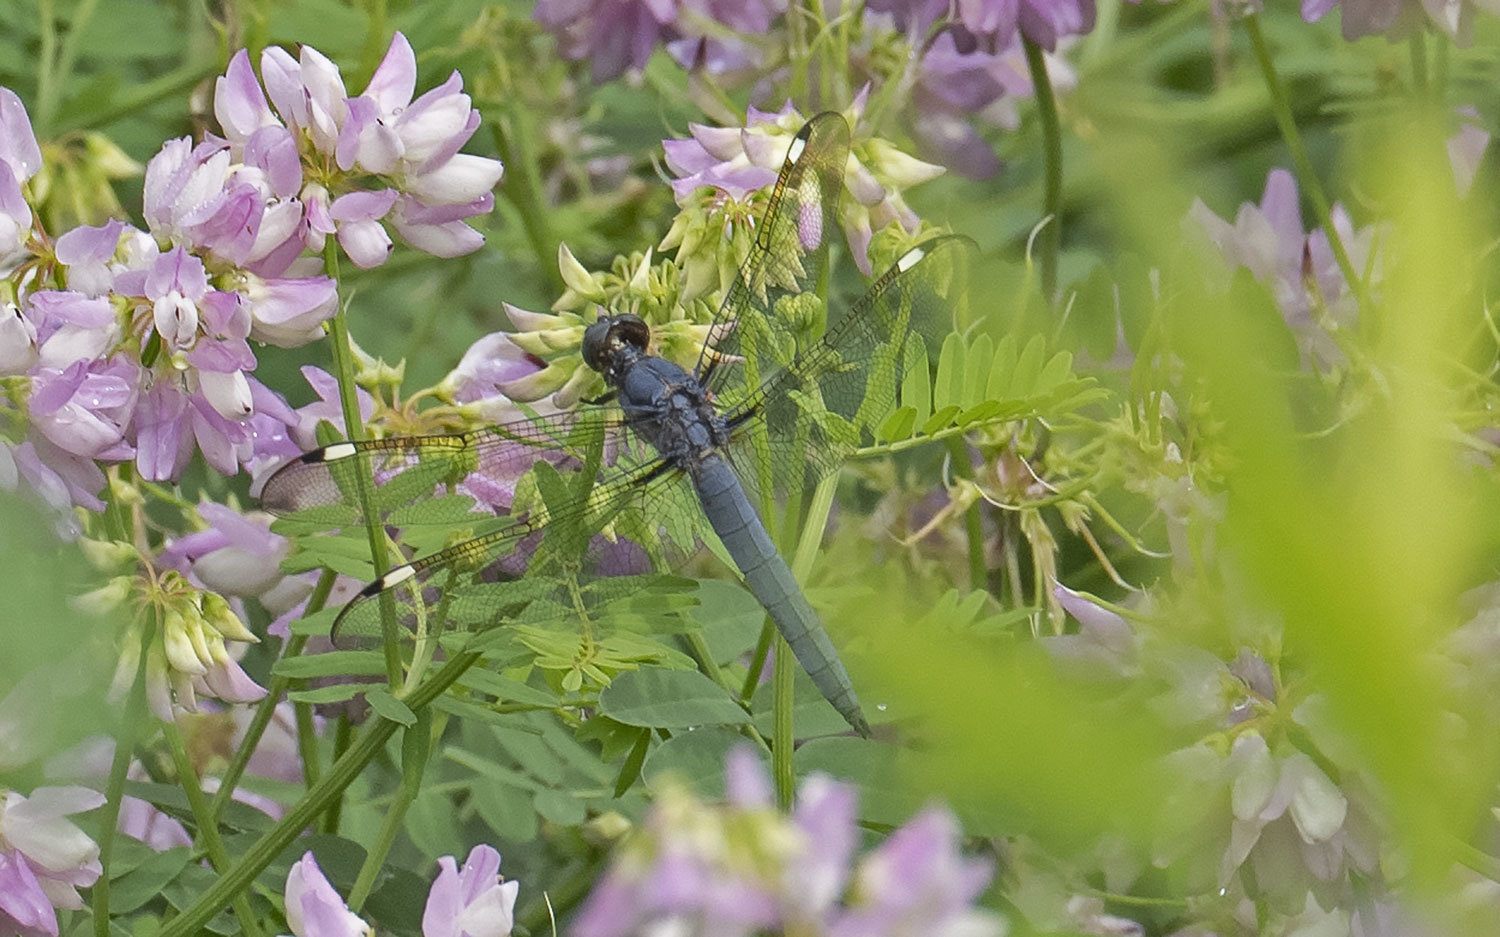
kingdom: Animalia
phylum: Arthropoda
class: Insecta
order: Odonata
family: Libellulidae
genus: Libellula
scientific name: Libellula cyanea
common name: Spangled skimmer
